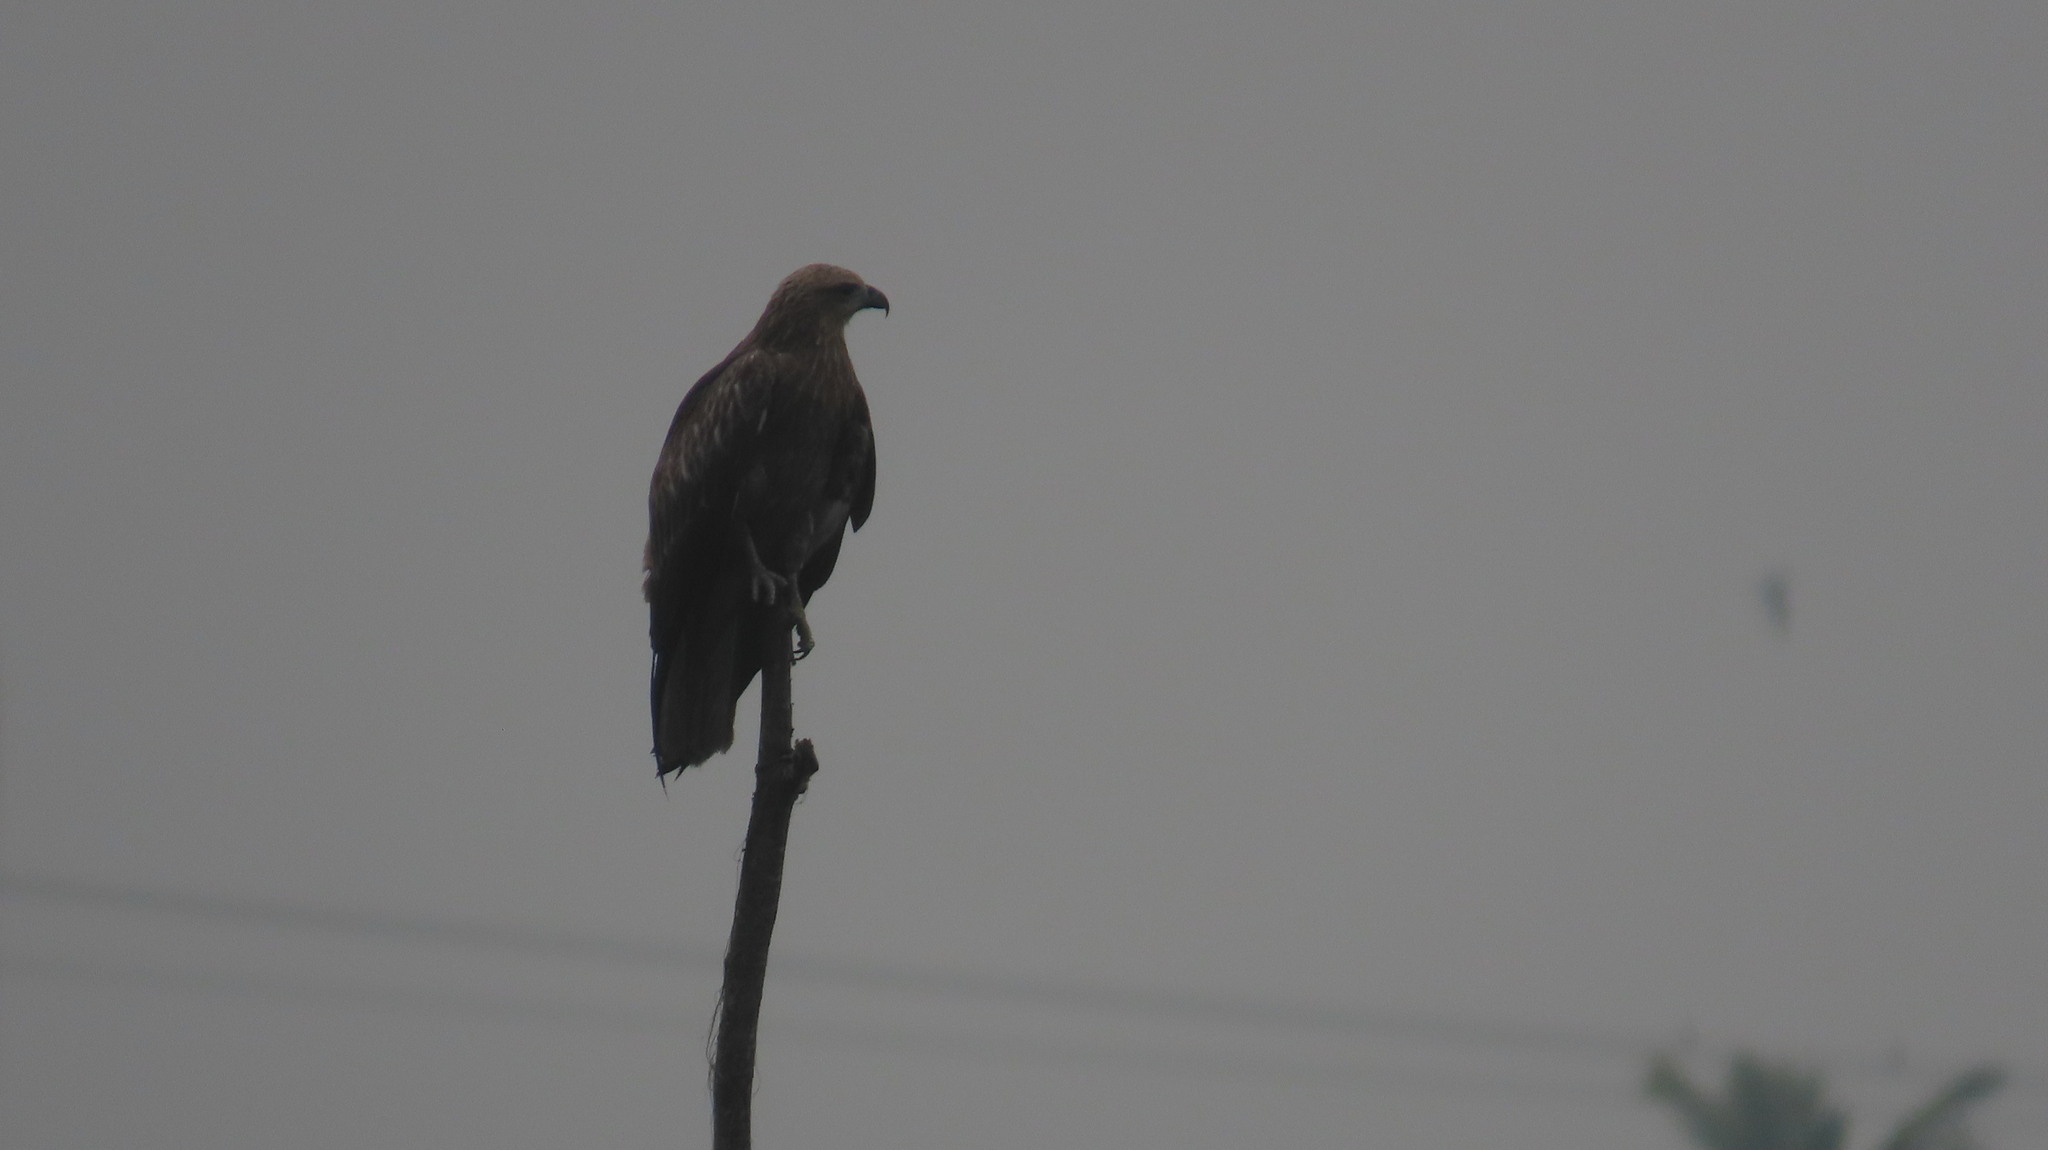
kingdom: Animalia
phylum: Chordata
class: Aves
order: Accipitriformes
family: Accipitridae
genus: Haliastur
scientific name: Haliastur indus
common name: Brahminy kite
